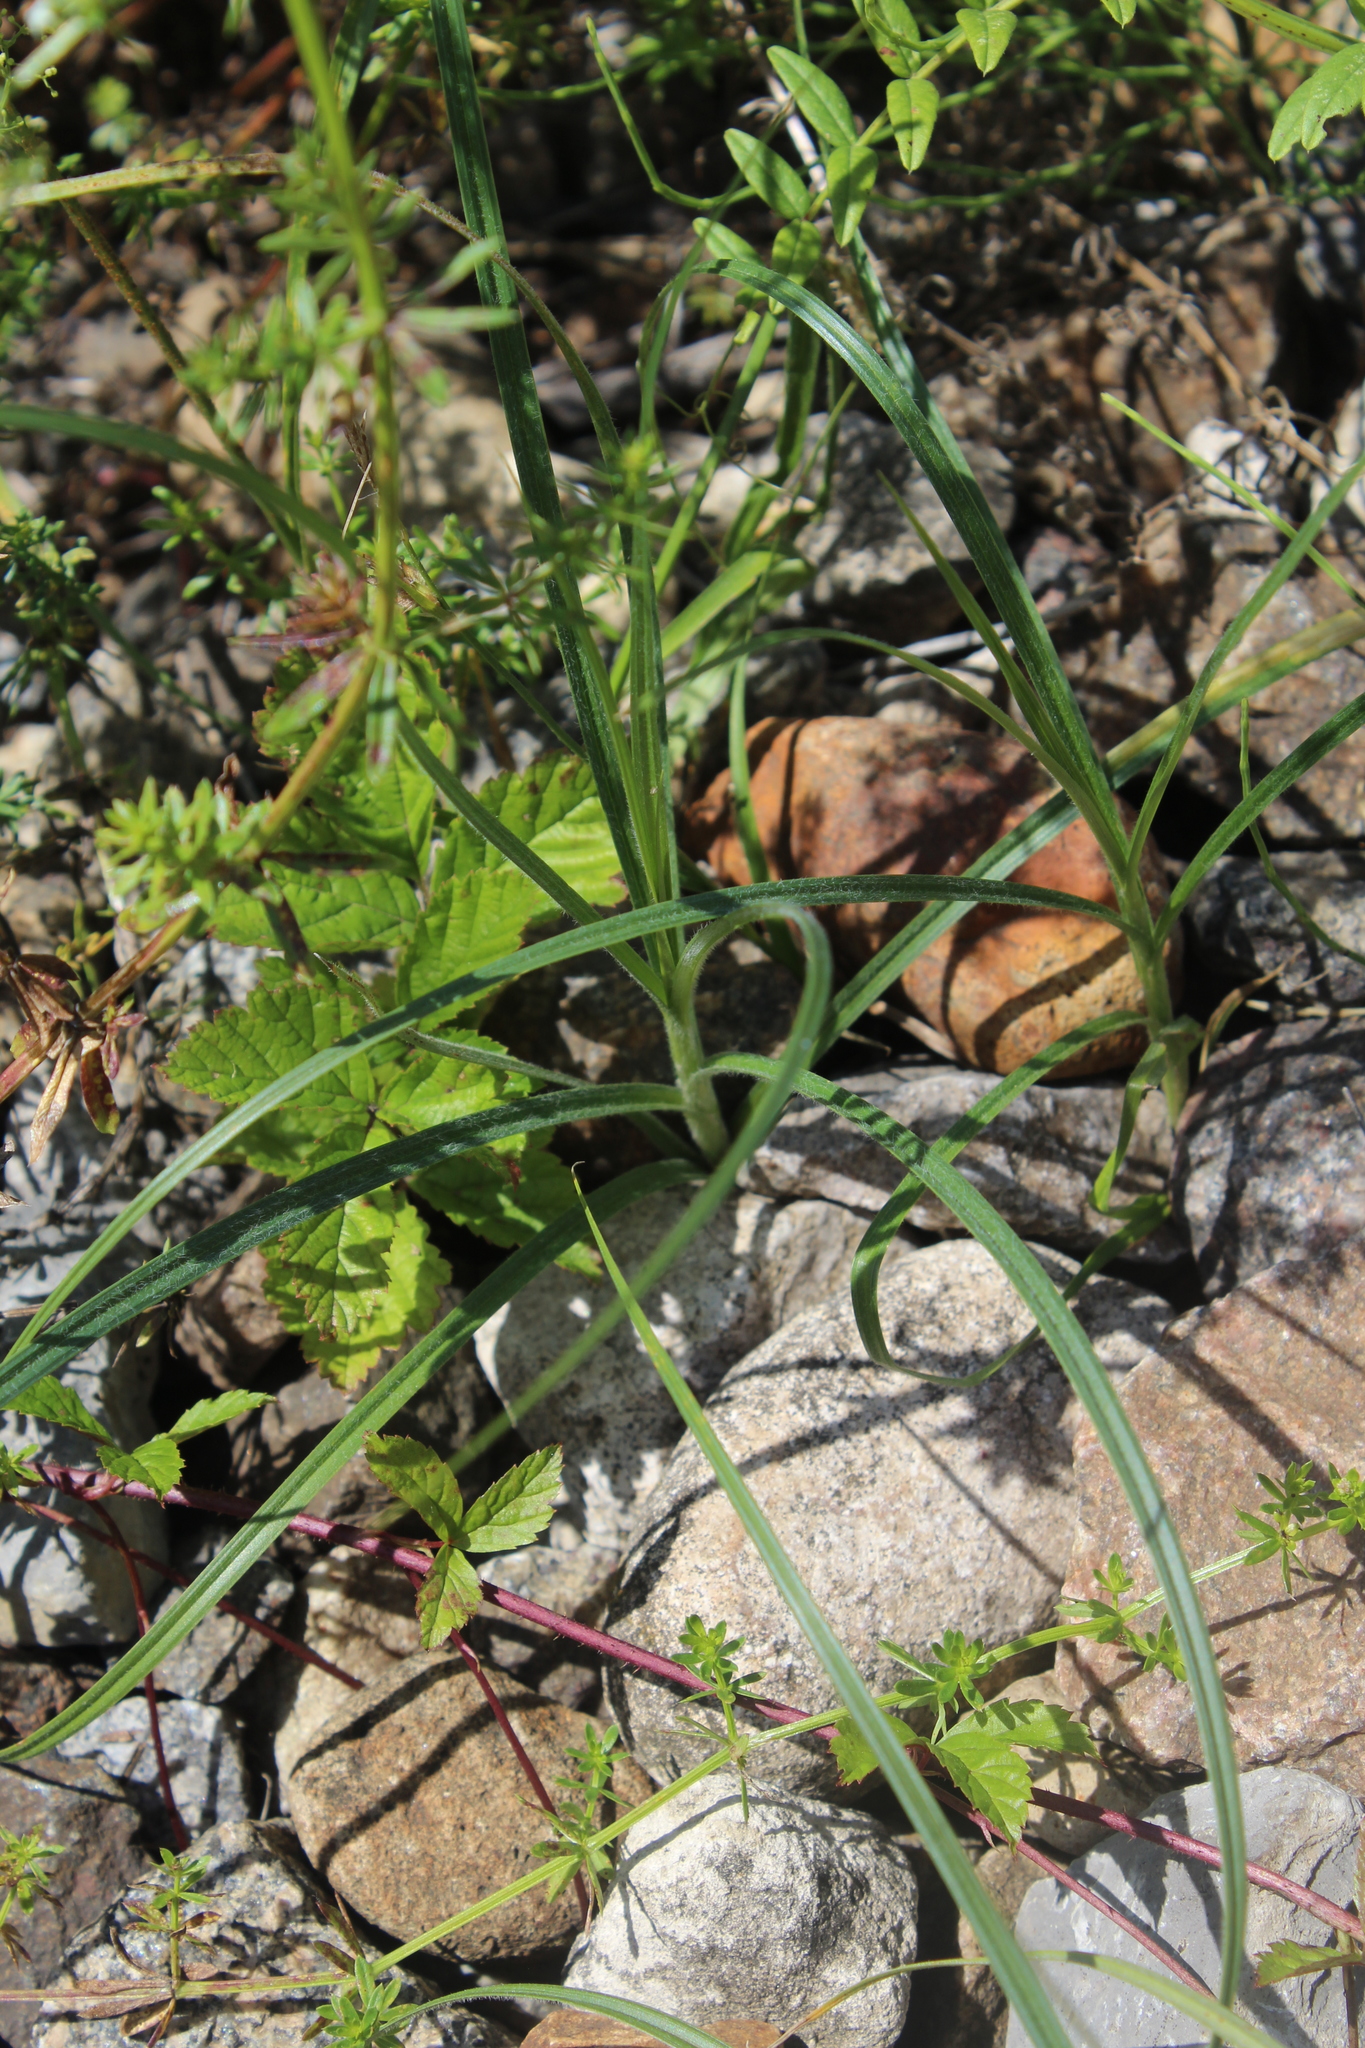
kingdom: Plantae
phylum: Tracheophyta
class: Liliopsida
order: Poales
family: Cyperaceae
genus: Carex
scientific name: Carex hirta
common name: Hairy sedge
